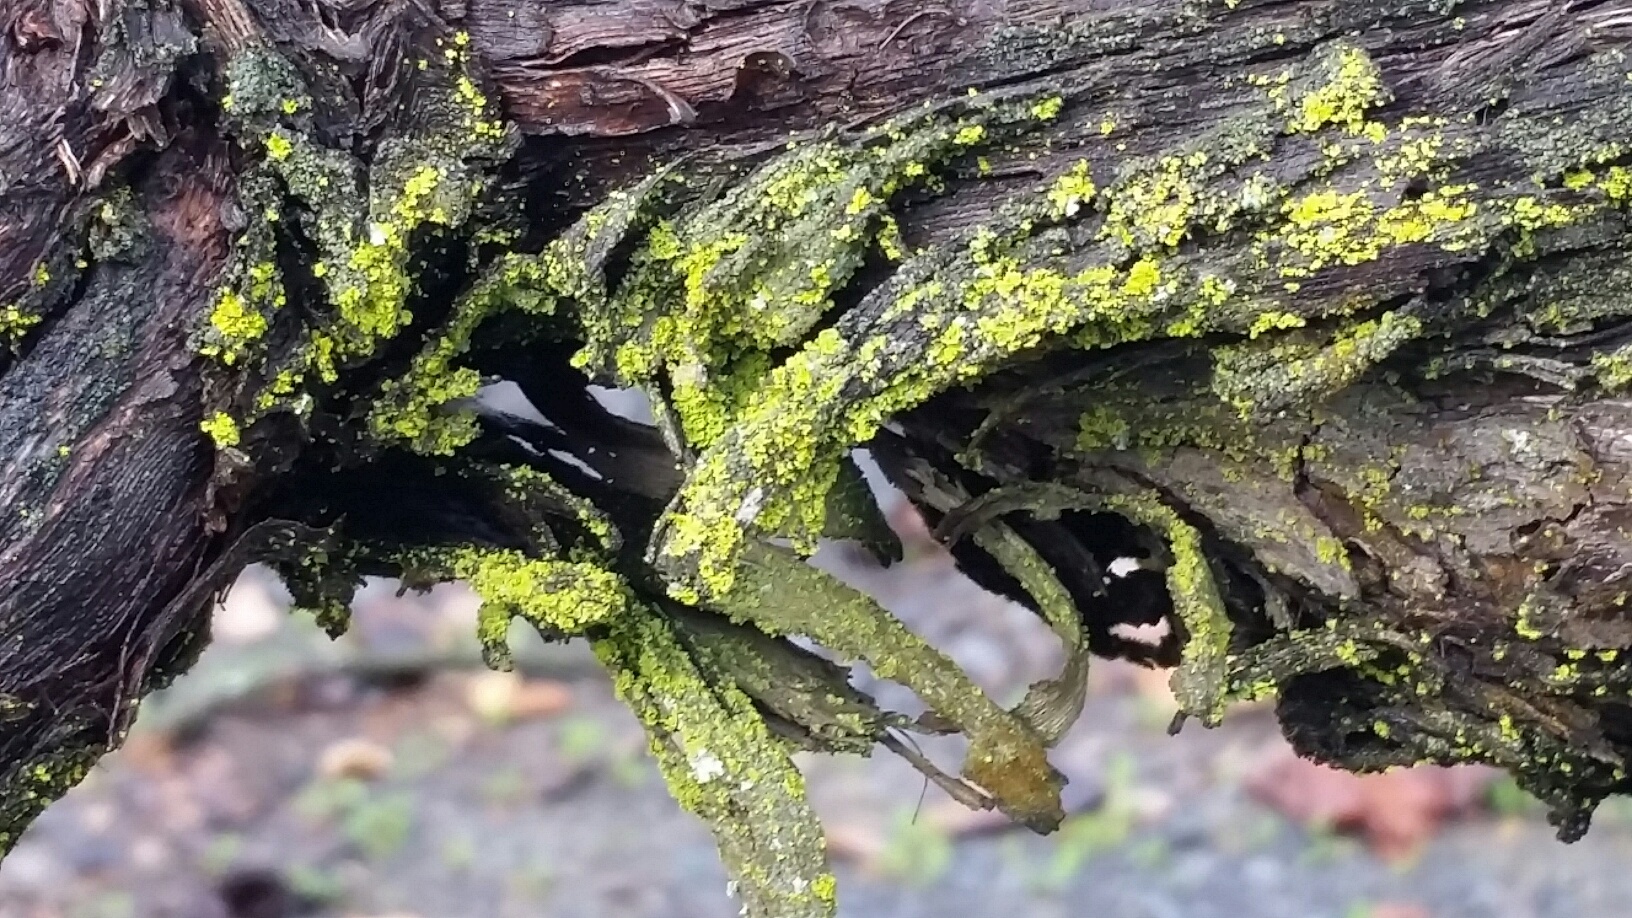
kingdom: Fungi
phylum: Ascomycota
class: Arthoniomycetes
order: Arthoniales
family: Chrysotrichaceae
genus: Chrysothrix
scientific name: Chrysothrix xanthina
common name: Common gold-dust
